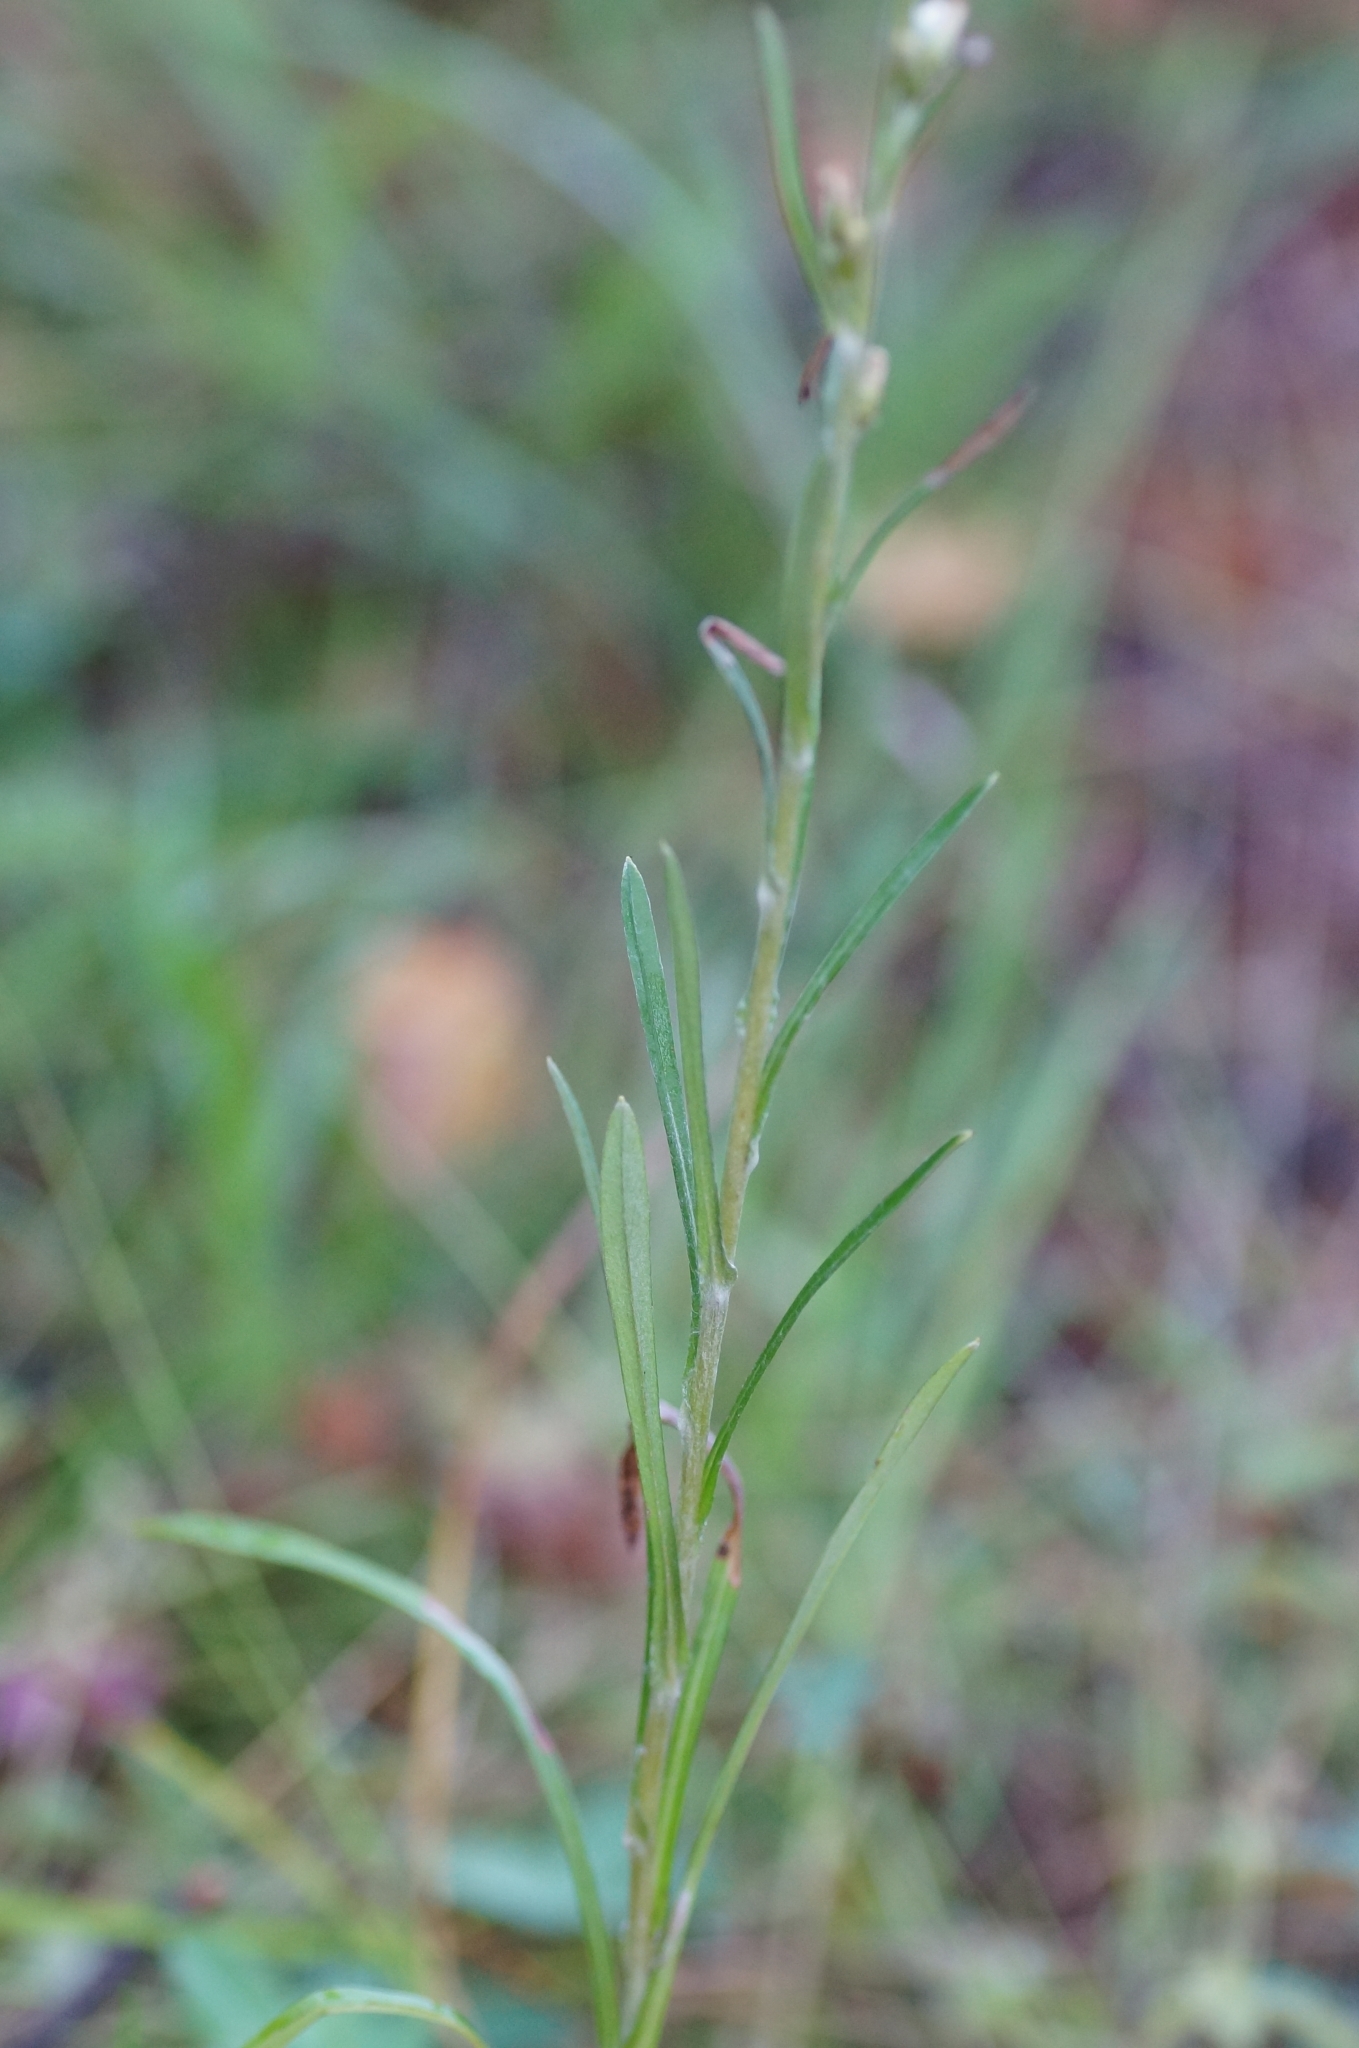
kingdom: Plantae
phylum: Tracheophyta
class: Magnoliopsida
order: Asterales
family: Asteraceae
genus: Omalotheca
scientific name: Omalotheca sylvatica
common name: Heath cudweed
